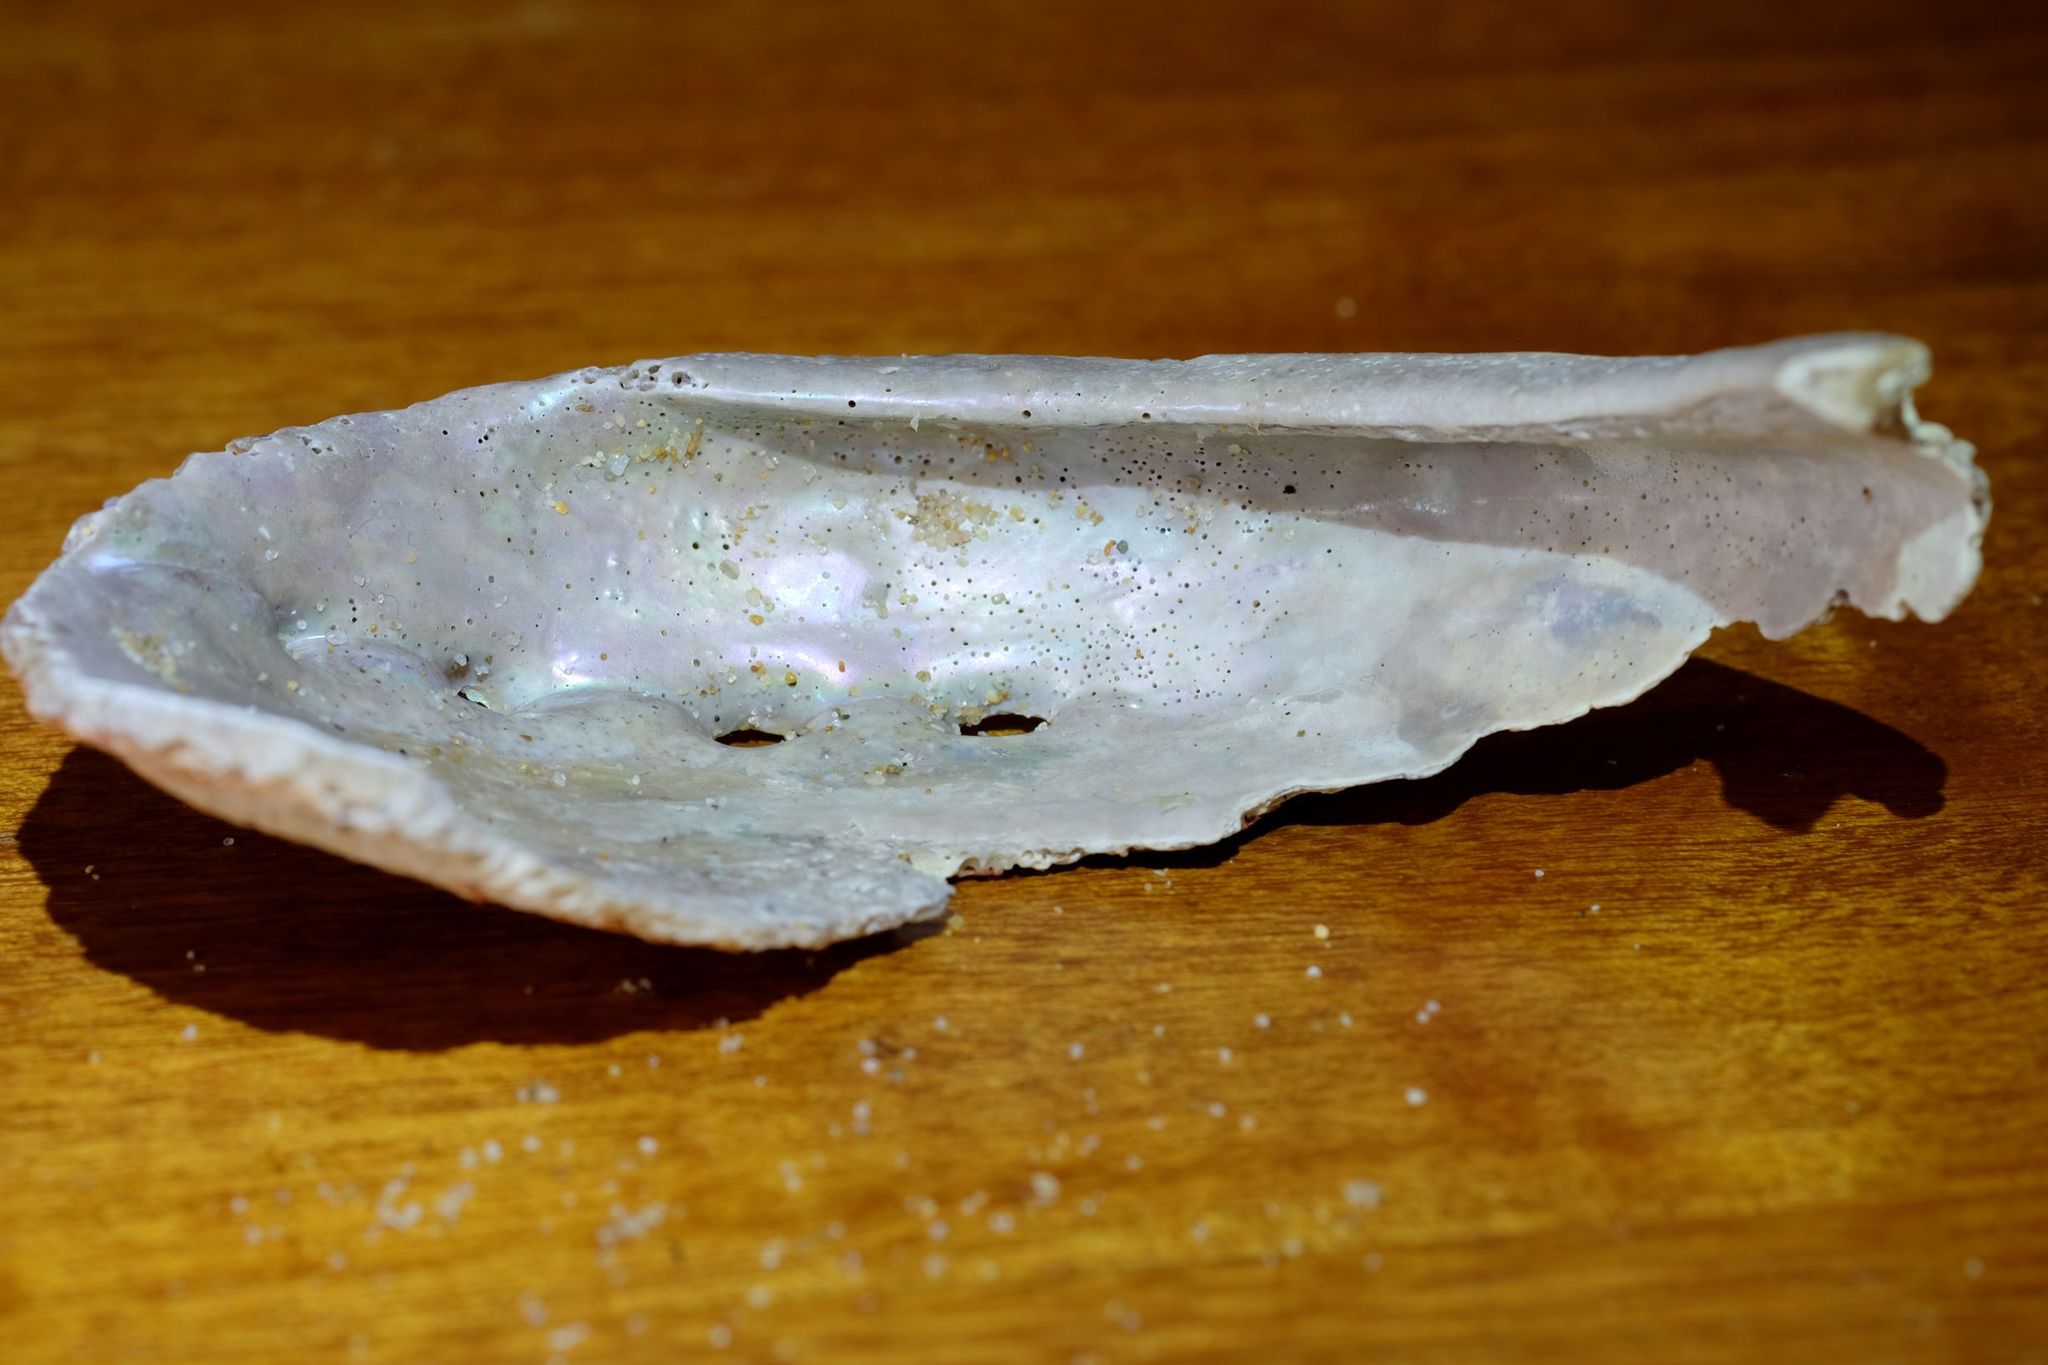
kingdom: Animalia
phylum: Mollusca
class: Gastropoda
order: Lepetellida
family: Haliotidae
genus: Haliotis
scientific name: Haliotis rubra
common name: Blacklip abalone
